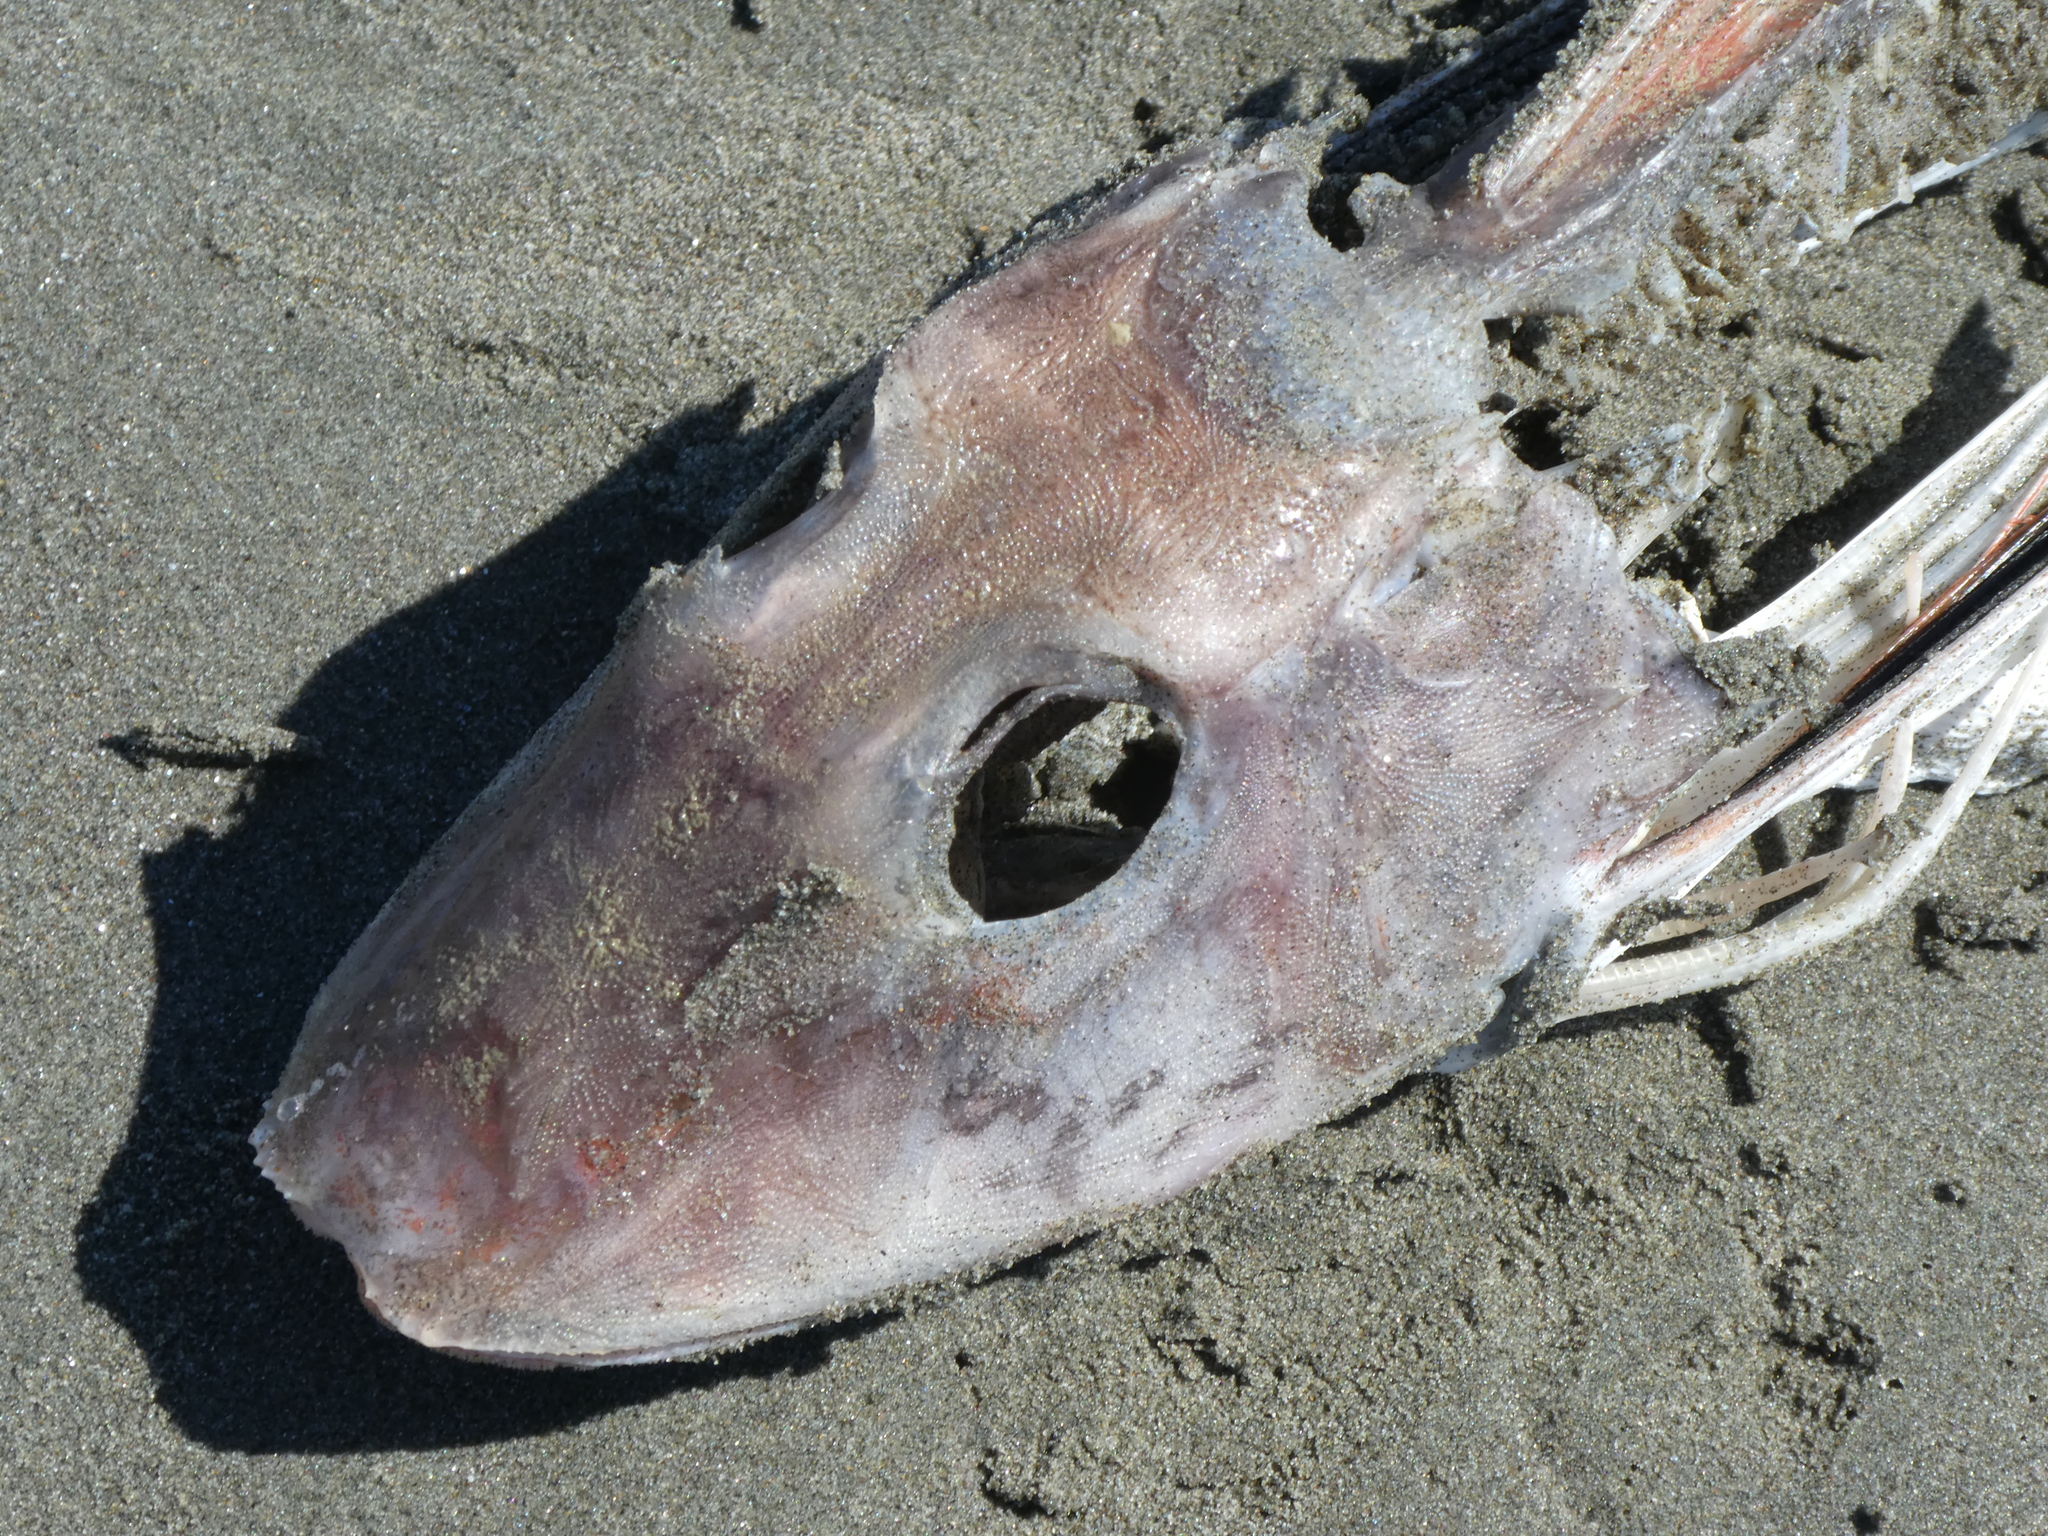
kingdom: Animalia
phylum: Chordata
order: Scorpaeniformes
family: Triglidae
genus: Chelidonichthys
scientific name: Chelidonichthys kumu
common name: Bluefin gurnard
